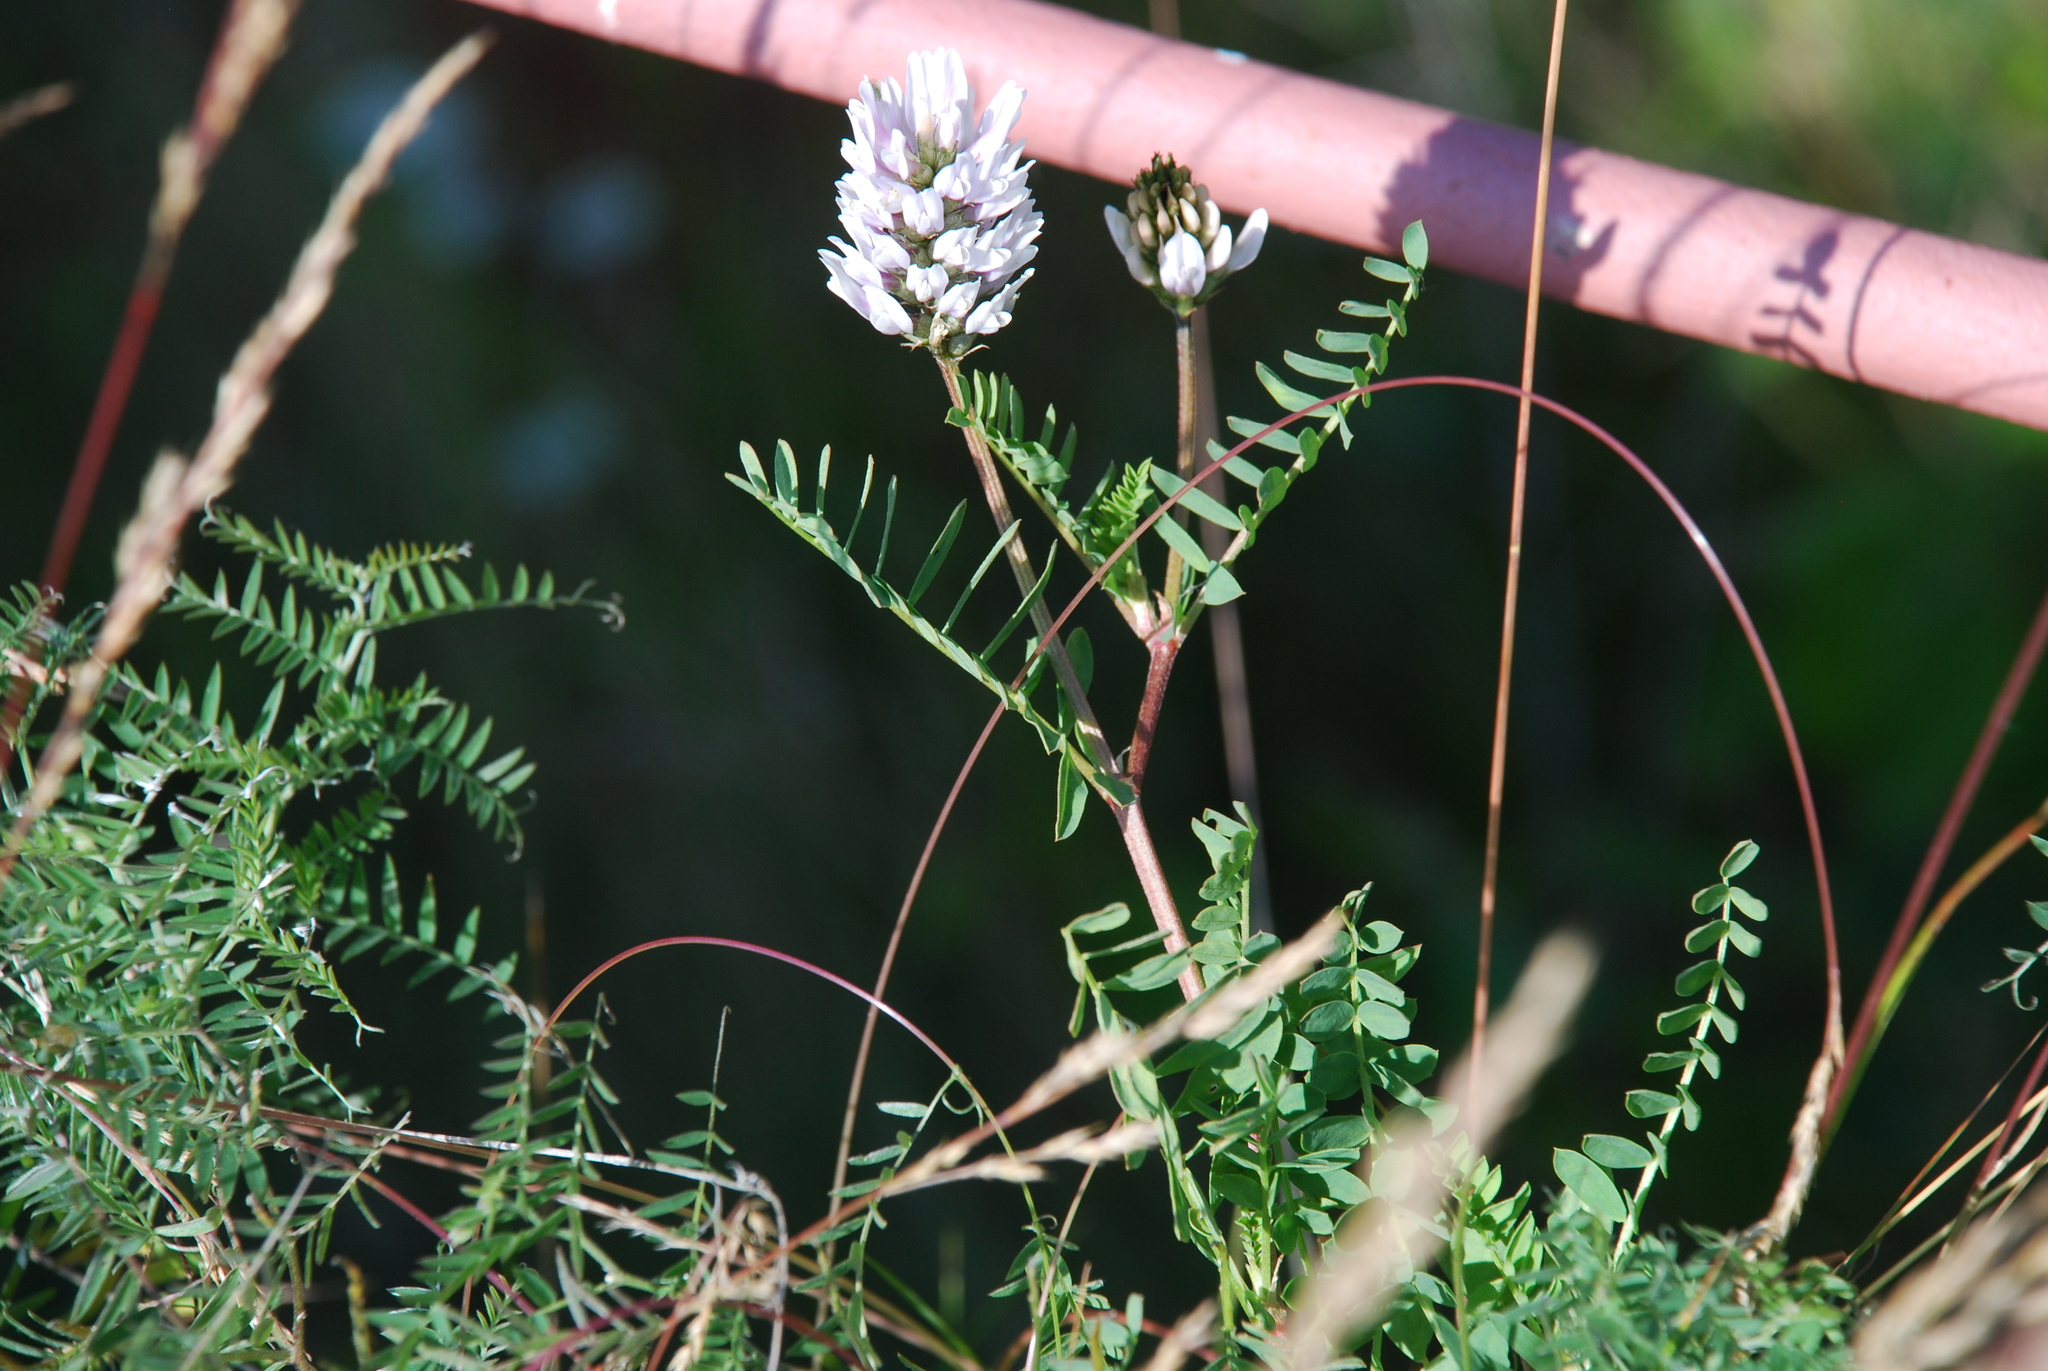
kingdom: Plantae
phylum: Tracheophyta
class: Magnoliopsida
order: Fabales
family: Fabaceae
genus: Astragalus
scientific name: Astragalus laxmannii
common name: Laxmann's milk-vetch
